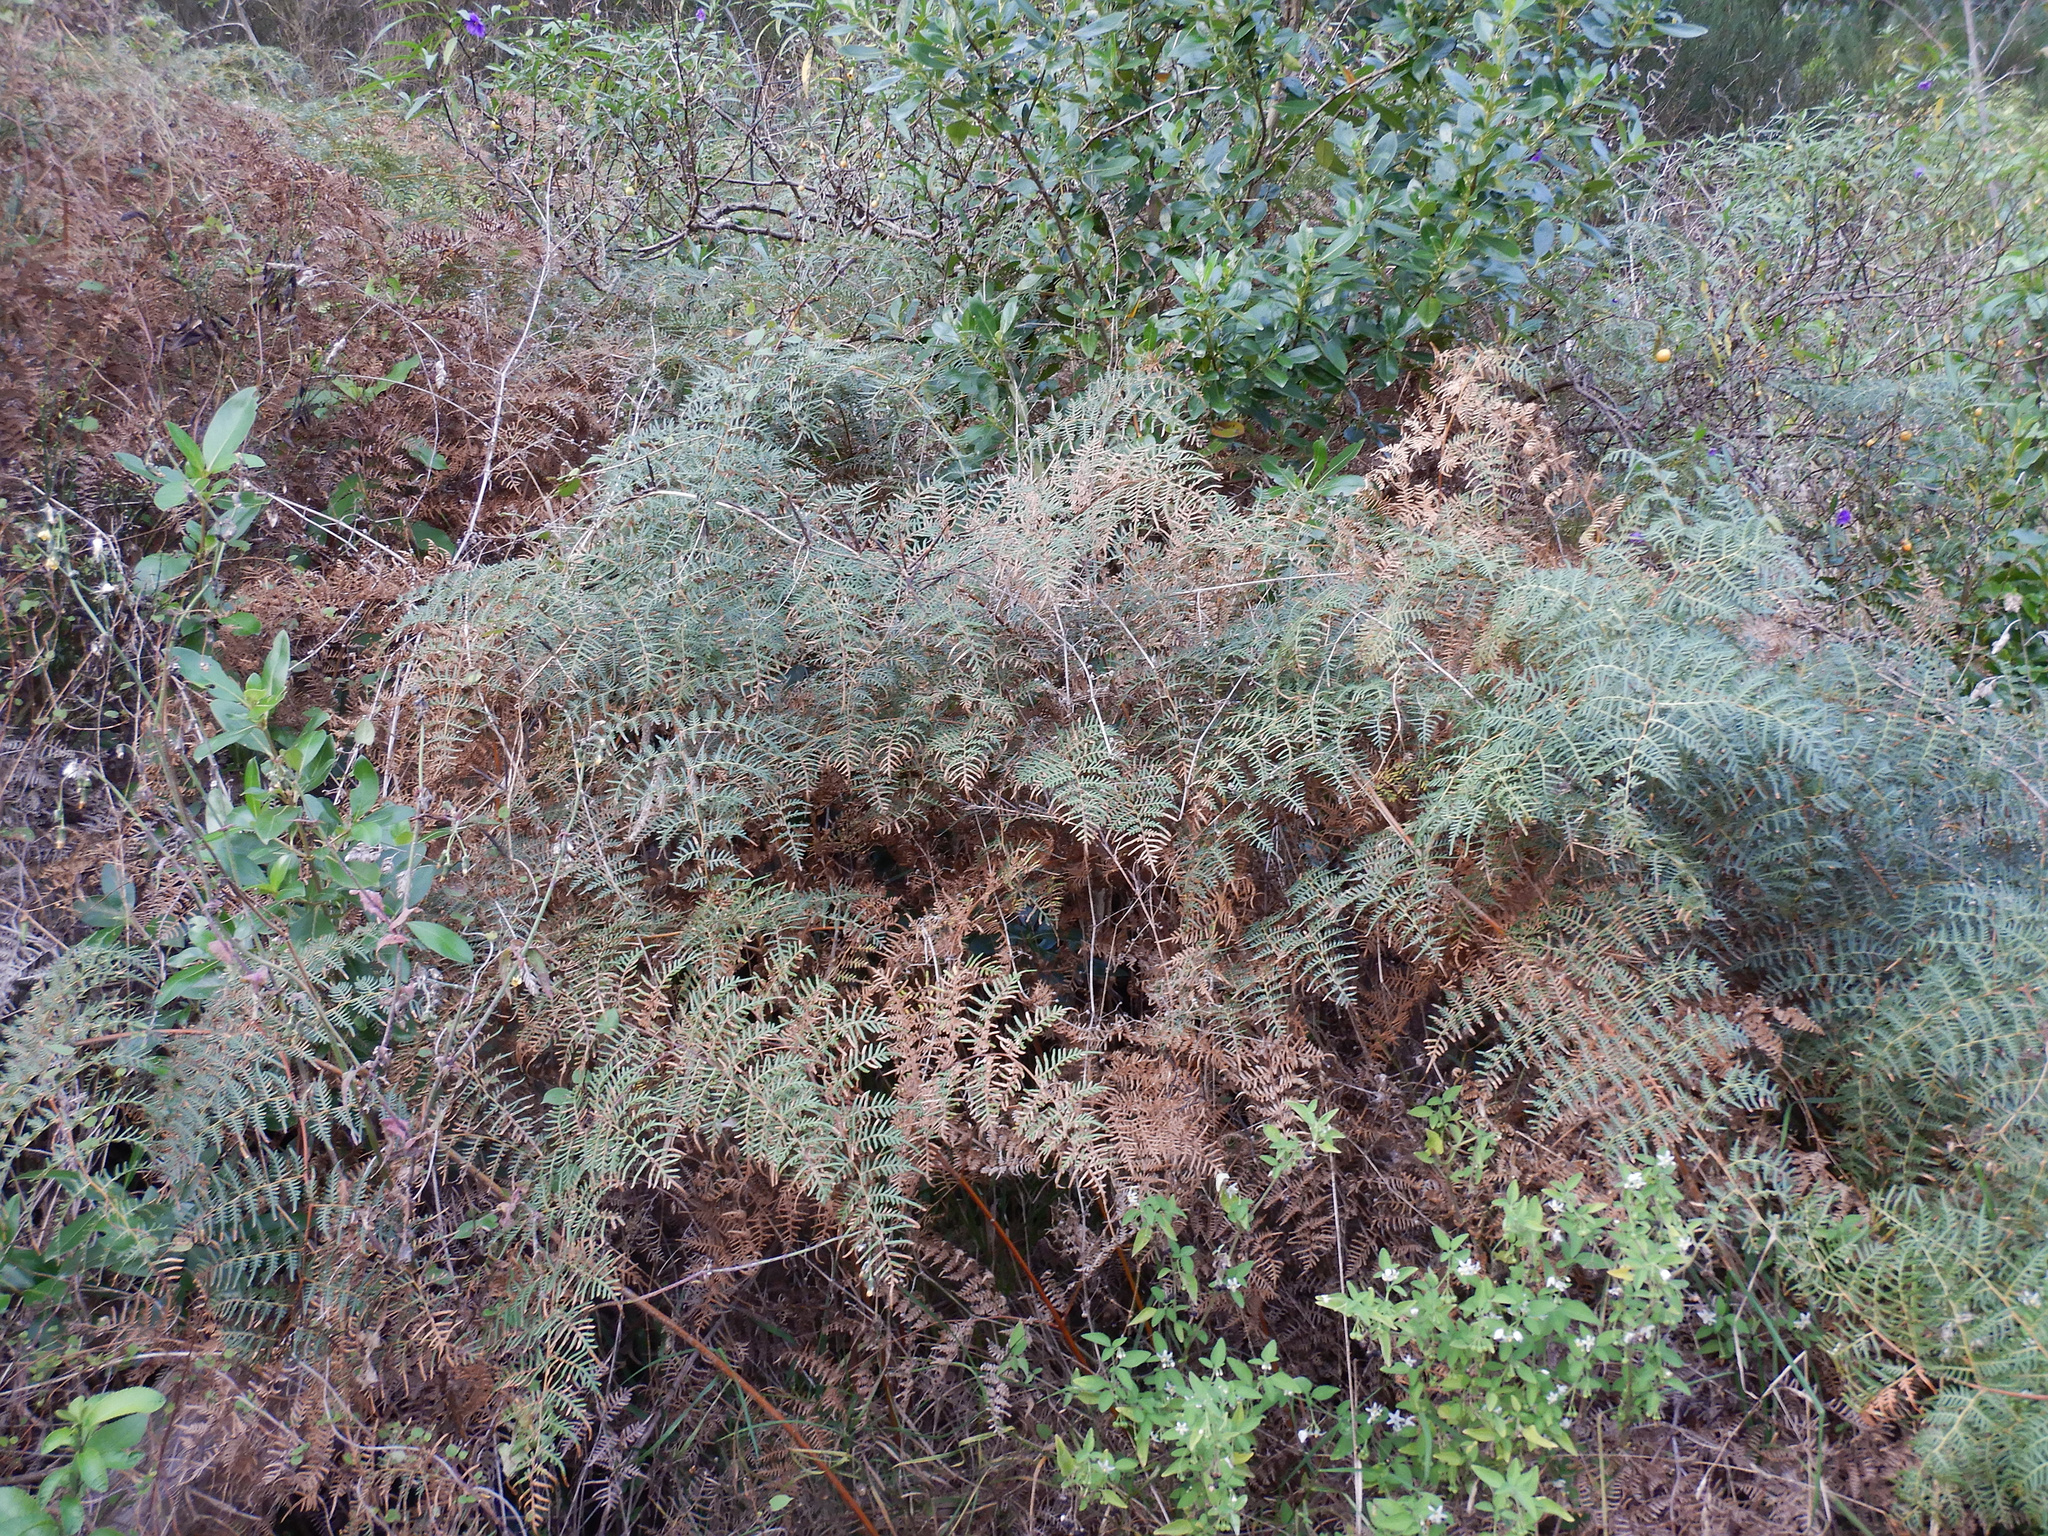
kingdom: Plantae
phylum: Tracheophyta
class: Polypodiopsida
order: Polypodiales
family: Dennstaedtiaceae
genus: Pteridium
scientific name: Pteridium esculentum
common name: Bracken fern
